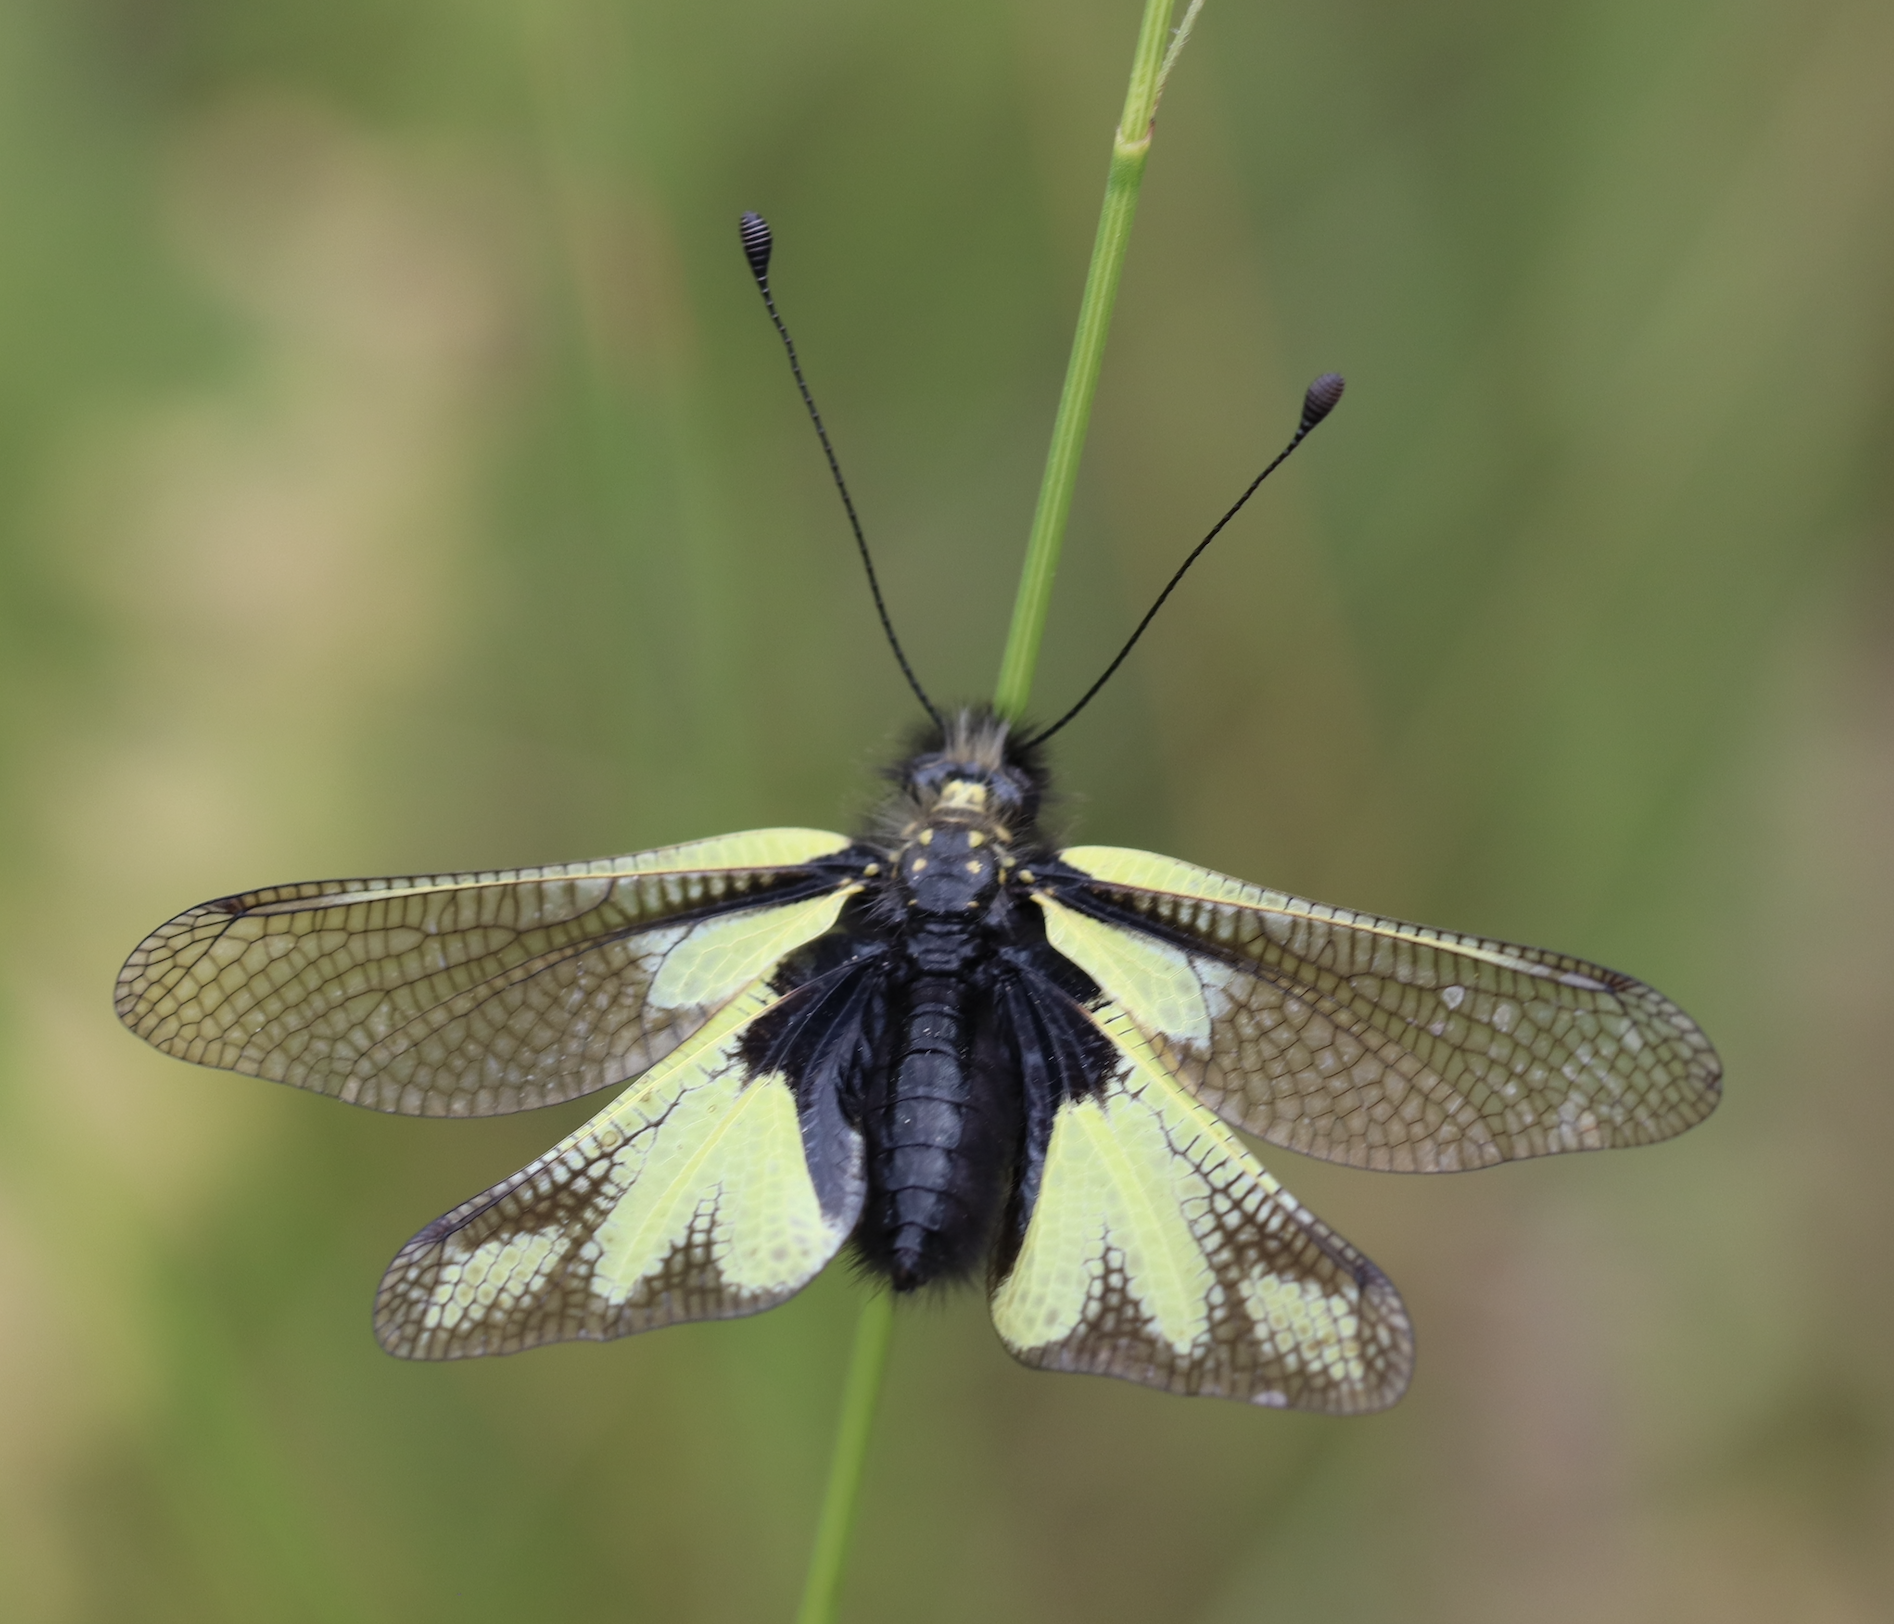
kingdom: Animalia
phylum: Arthropoda
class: Insecta
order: Neuroptera
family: Ascalaphidae
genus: Libelloides
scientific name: Libelloides coccajus
